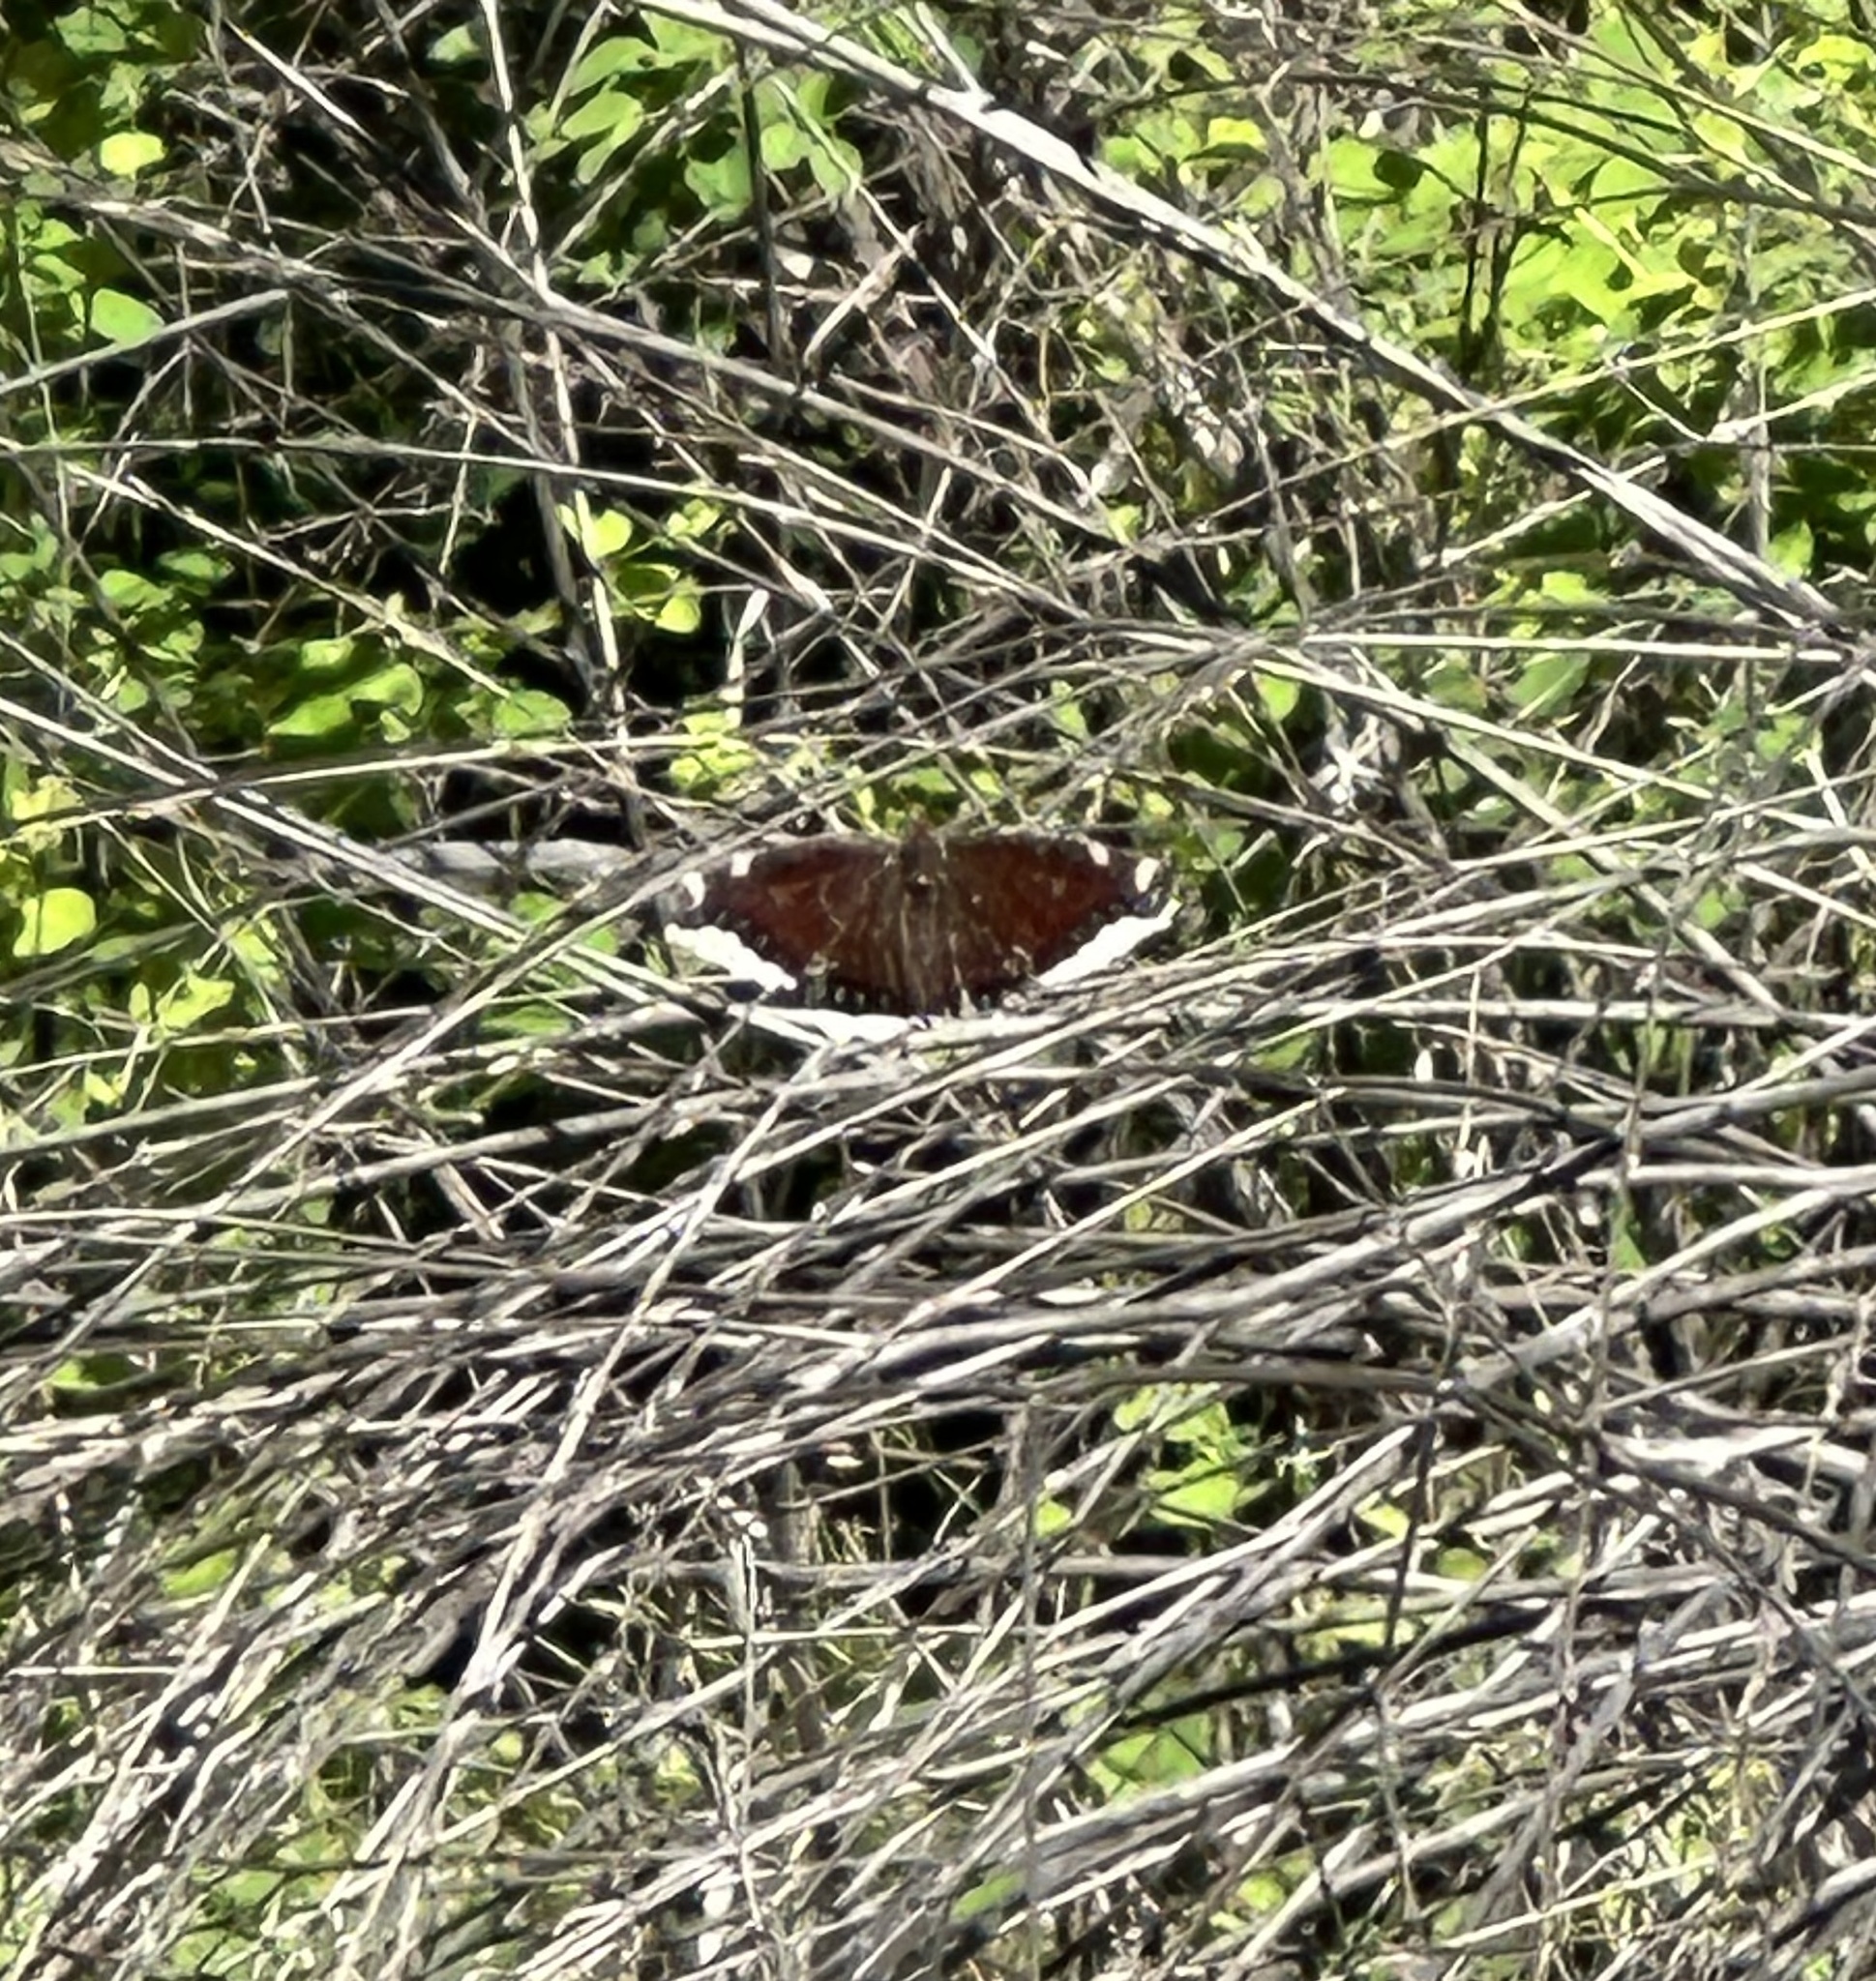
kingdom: Animalia
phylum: Arthropoda
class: Insecta
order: Lepidoptera
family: Nymphalidae
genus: Nymphalis
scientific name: Nymphalis antiopa
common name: Camberwell beauty
